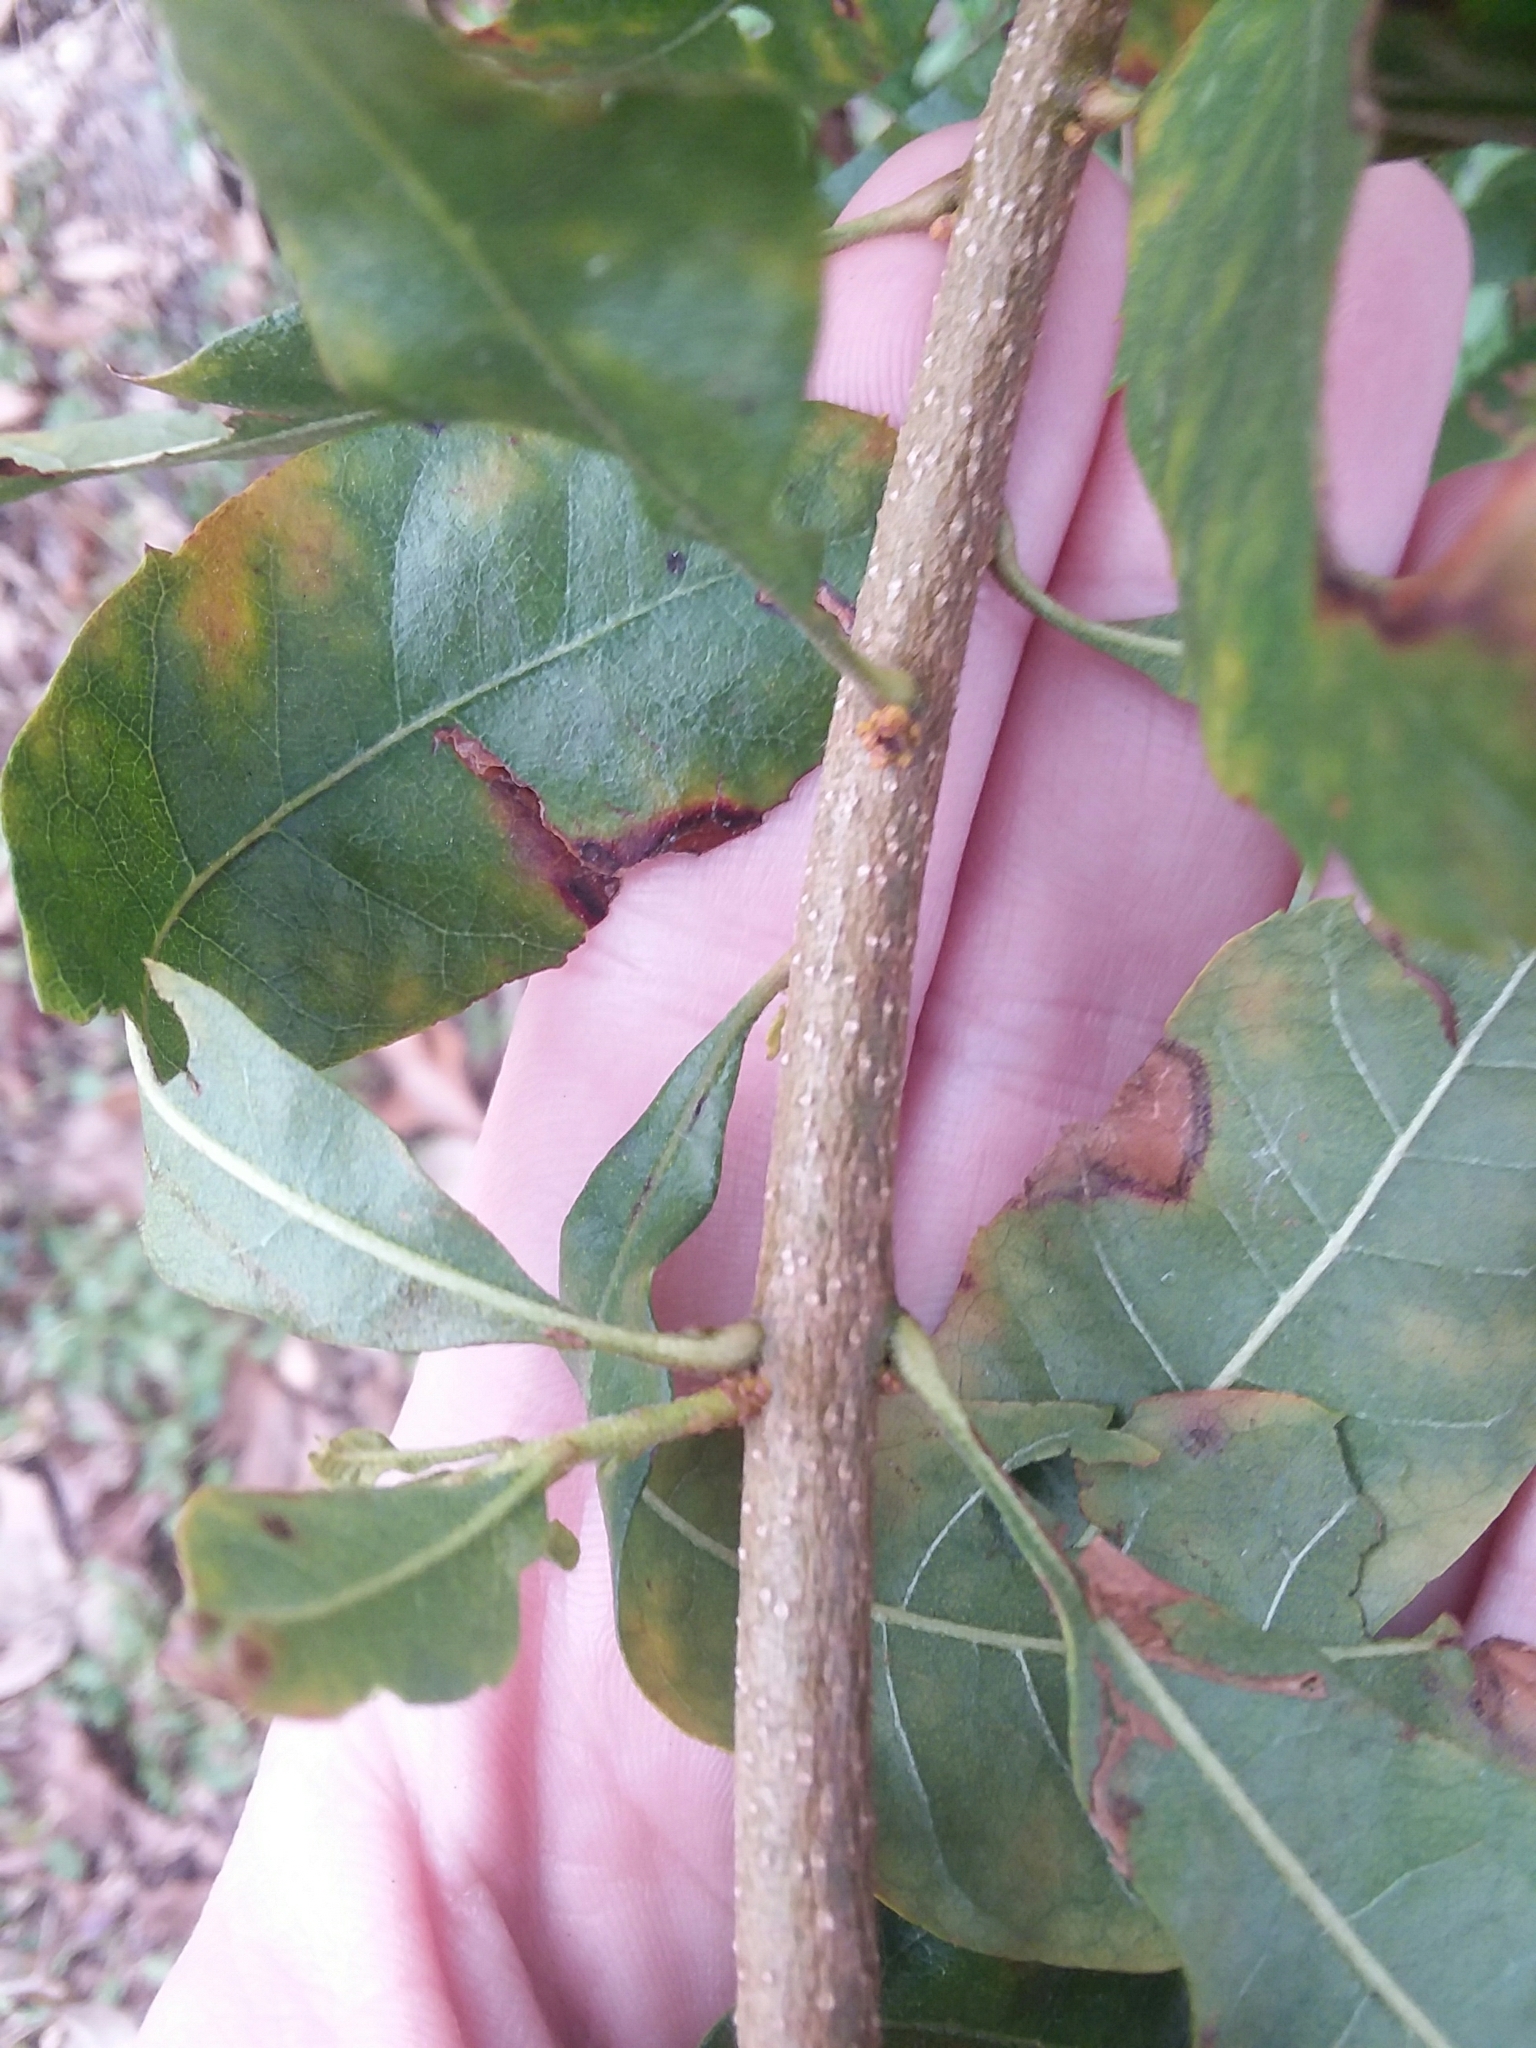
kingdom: Plantae
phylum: Tracheophyta
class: Magnoliopsida
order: Fagales
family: Myricaceae
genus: Morella
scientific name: Morella cerifera
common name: Wax myrtle
